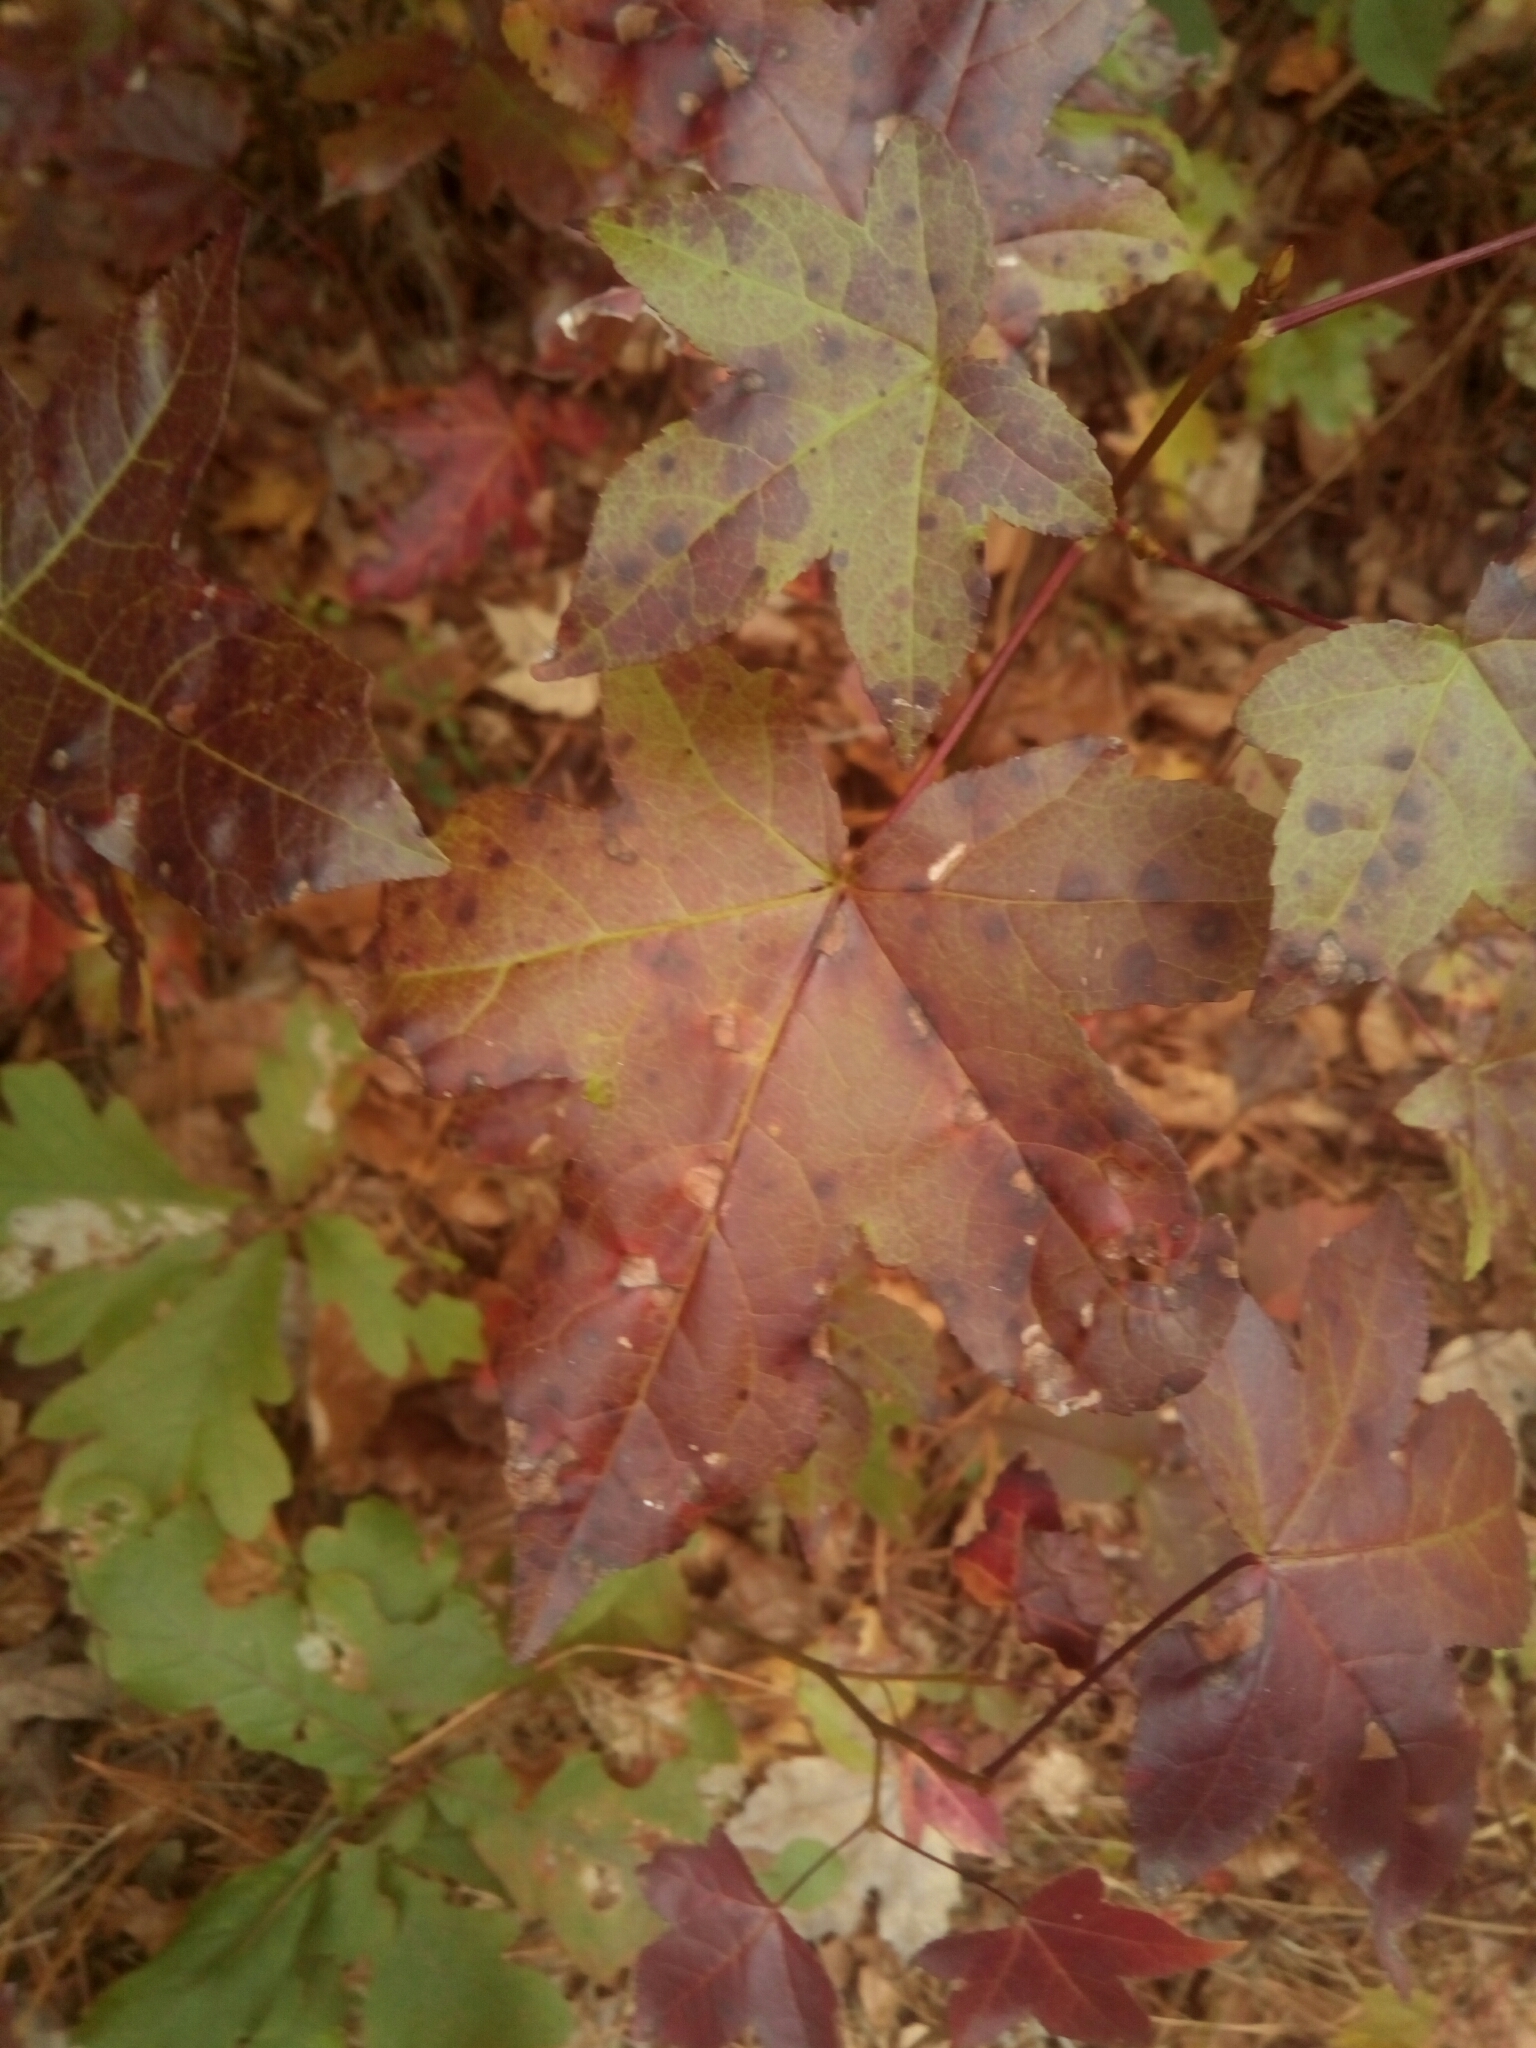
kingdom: Plantae
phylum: Tracheophyta
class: Magnoliopsida
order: Saxifragales
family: Altingiaceae
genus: Liquidambar
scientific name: Liquidambar styraciflua
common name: Sweet gum
